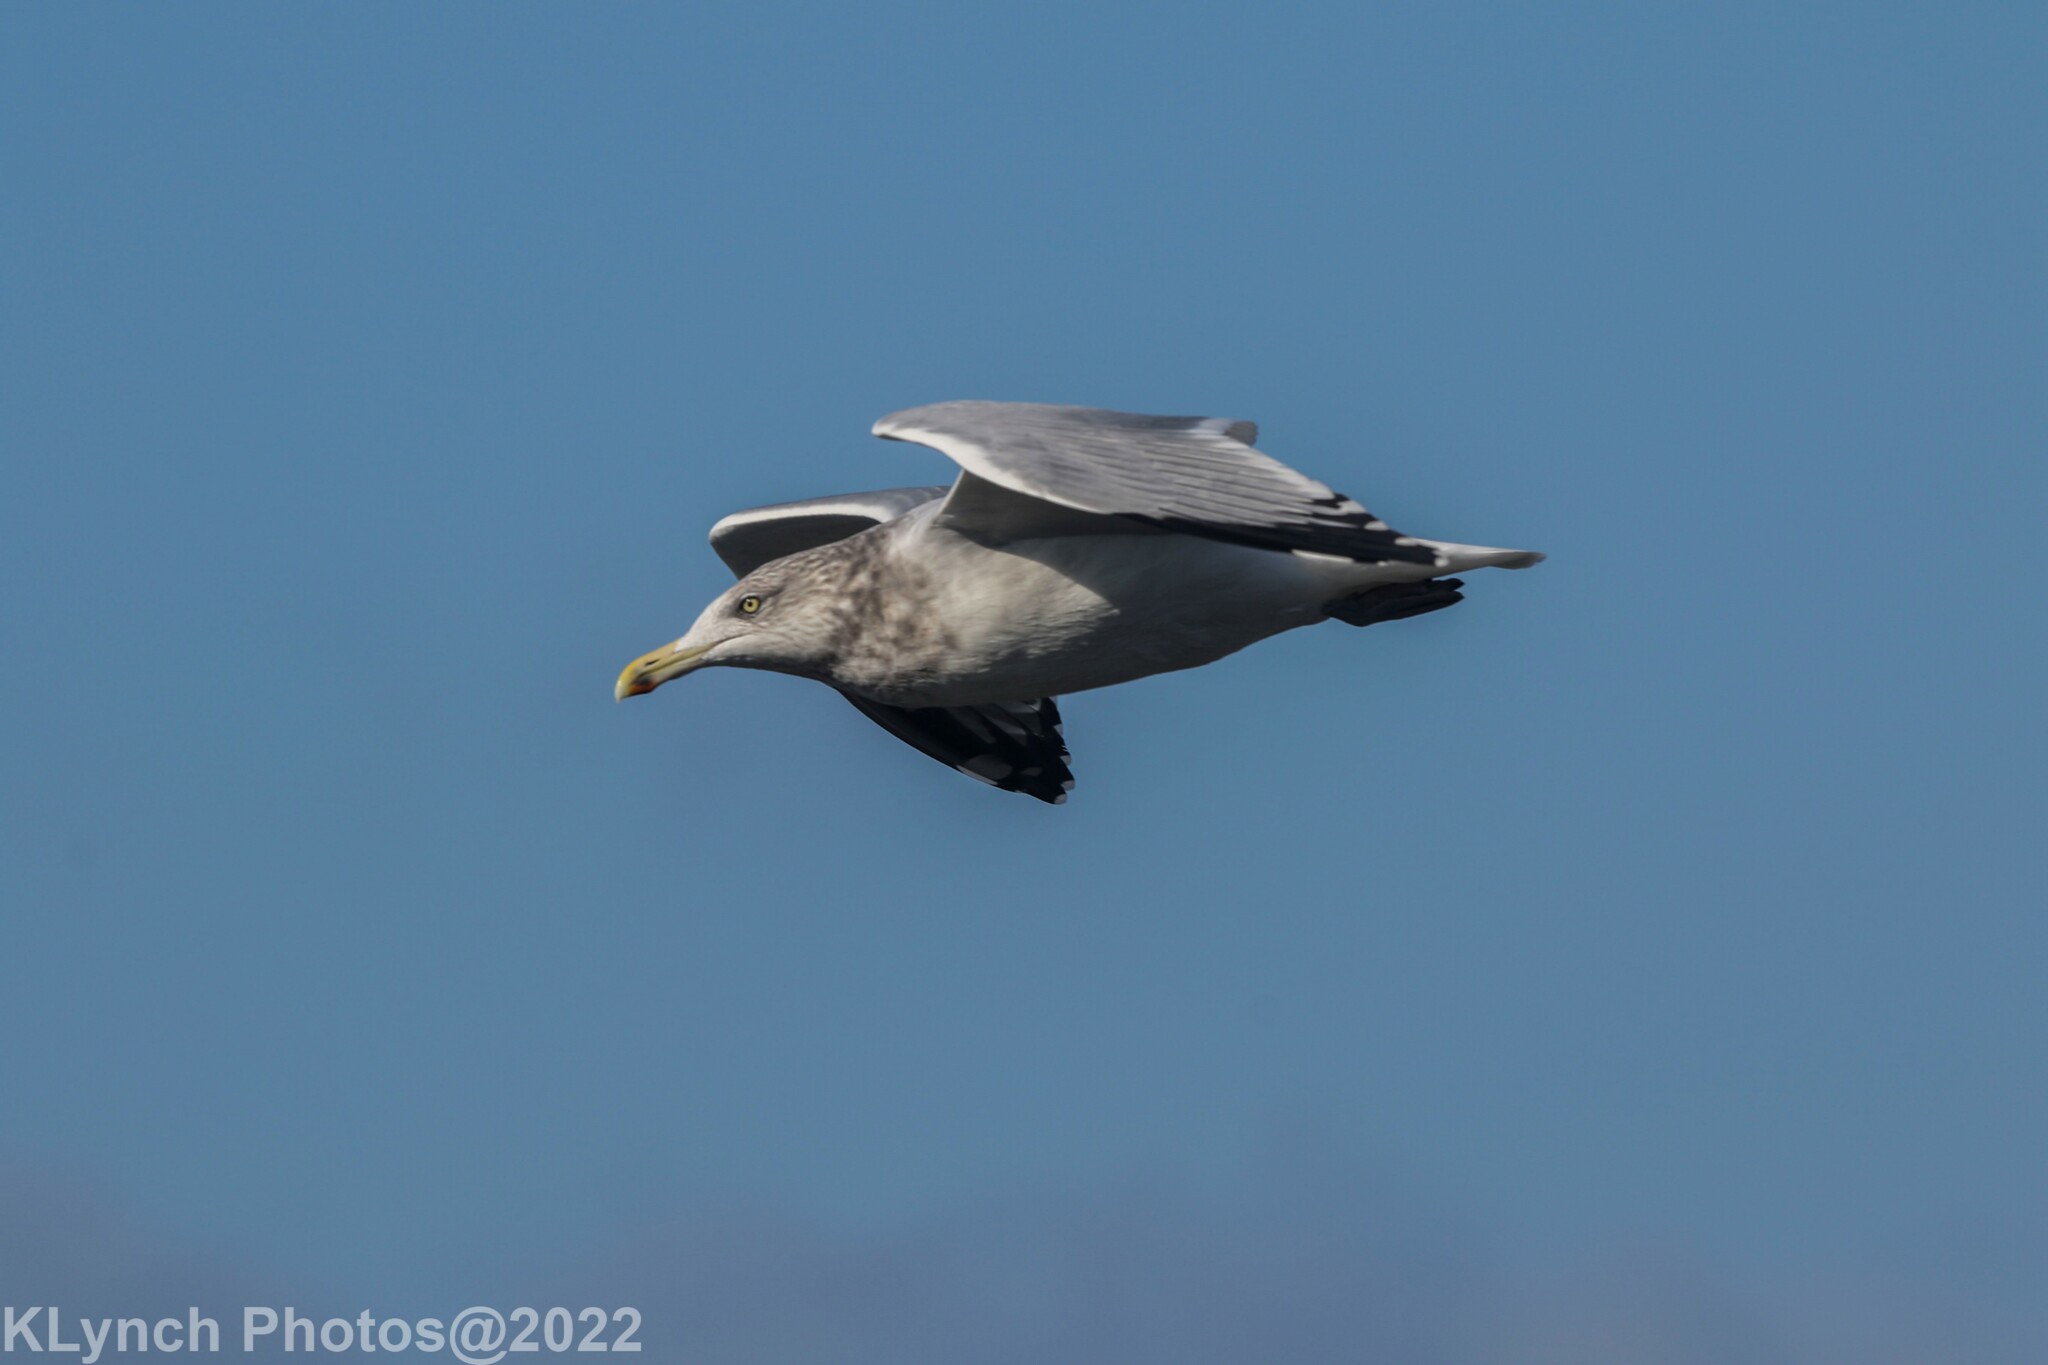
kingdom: Animalia
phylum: Chordata
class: Aves
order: Charadriiformes
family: Laridae
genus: Larus
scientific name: Larus argentatus
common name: Herring gull
